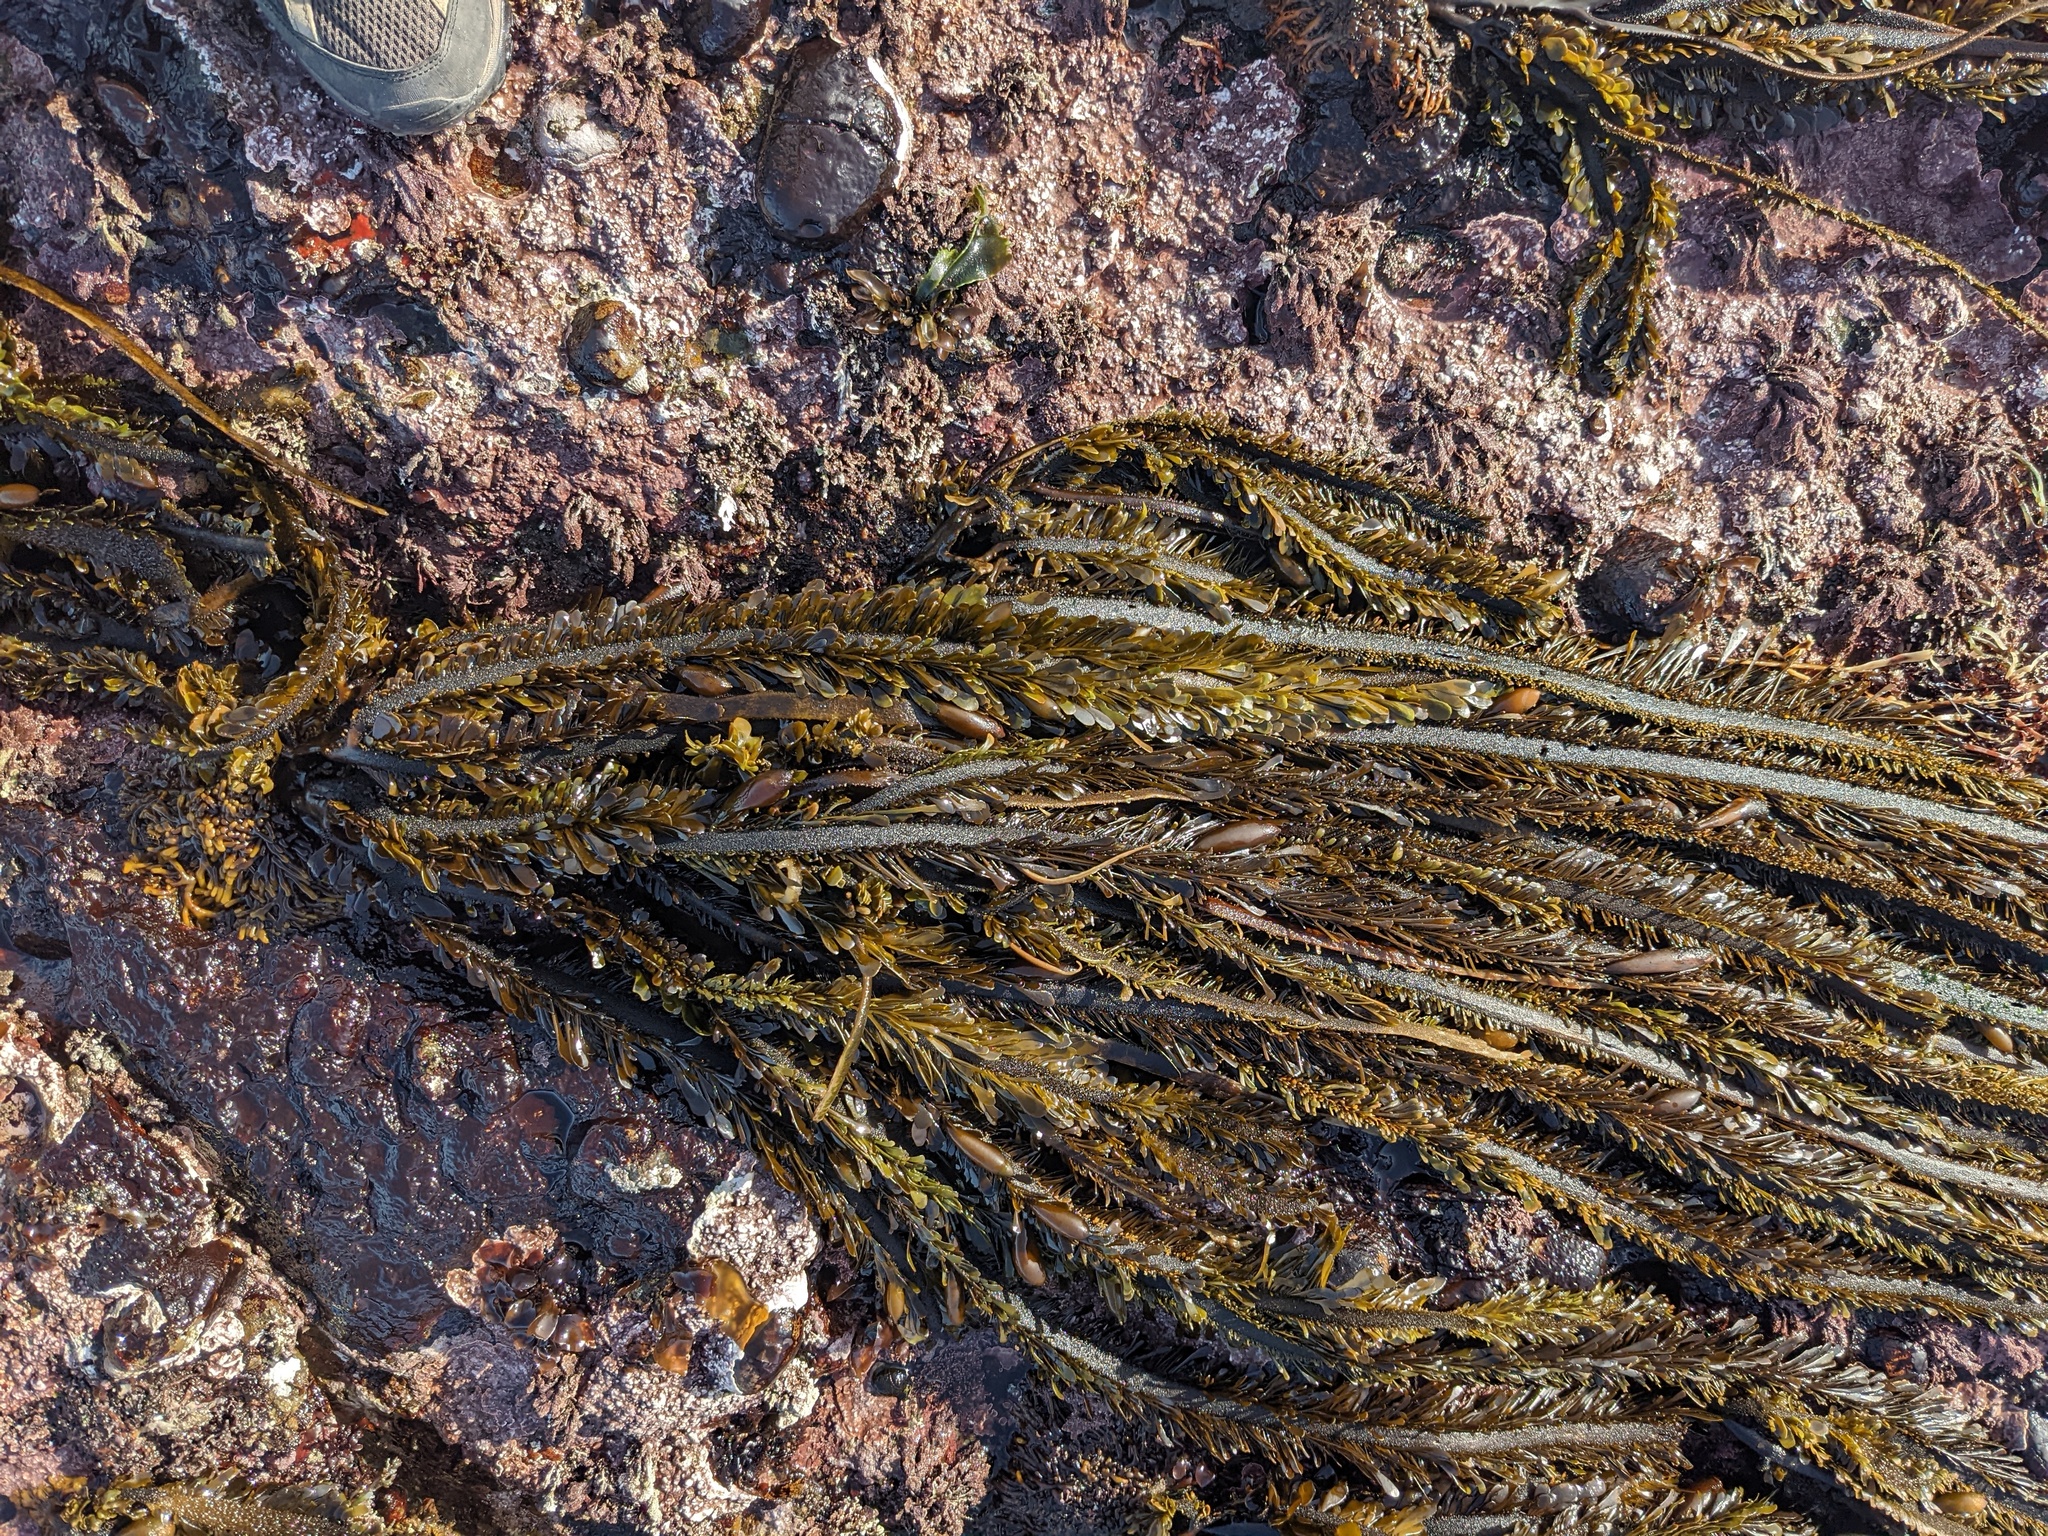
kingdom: Chromista
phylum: Ochrophyta
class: Phaeophyceae
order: Laminariales
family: Lessoniaceae
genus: Egregia
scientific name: Egregia menziesii
